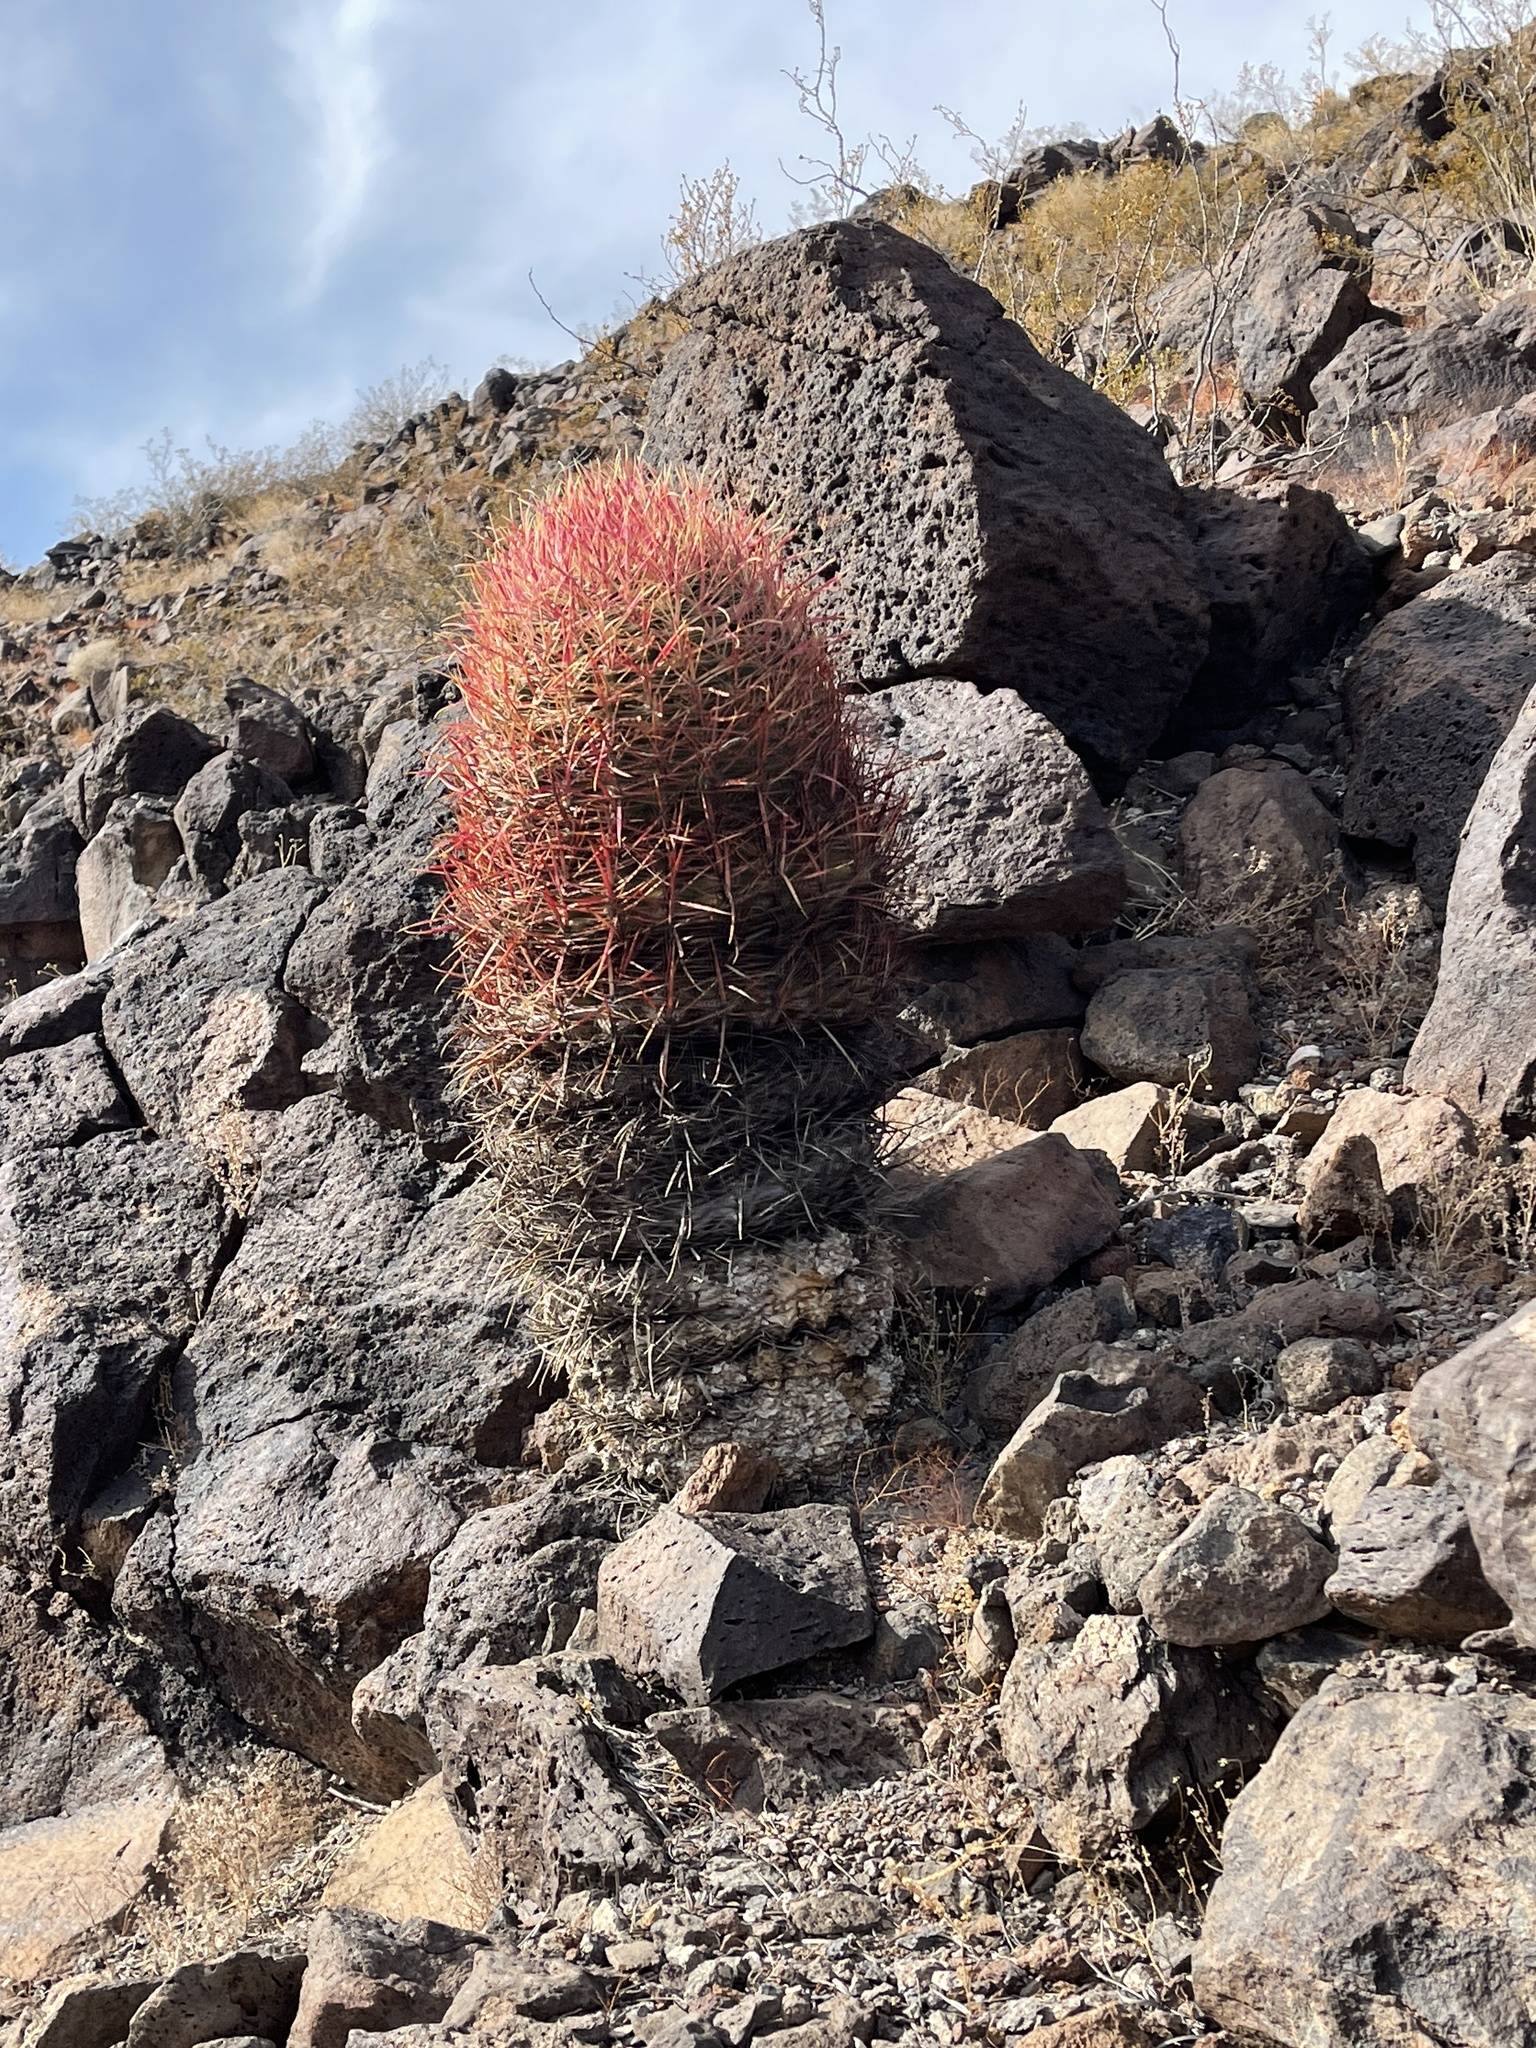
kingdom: Plantae
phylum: Tracheophyta
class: Magnoliopsida
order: Caryophyllales
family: Cactaceae
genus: Ferocactus
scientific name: Ferocactus cylindraceus
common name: California barrel cactus
